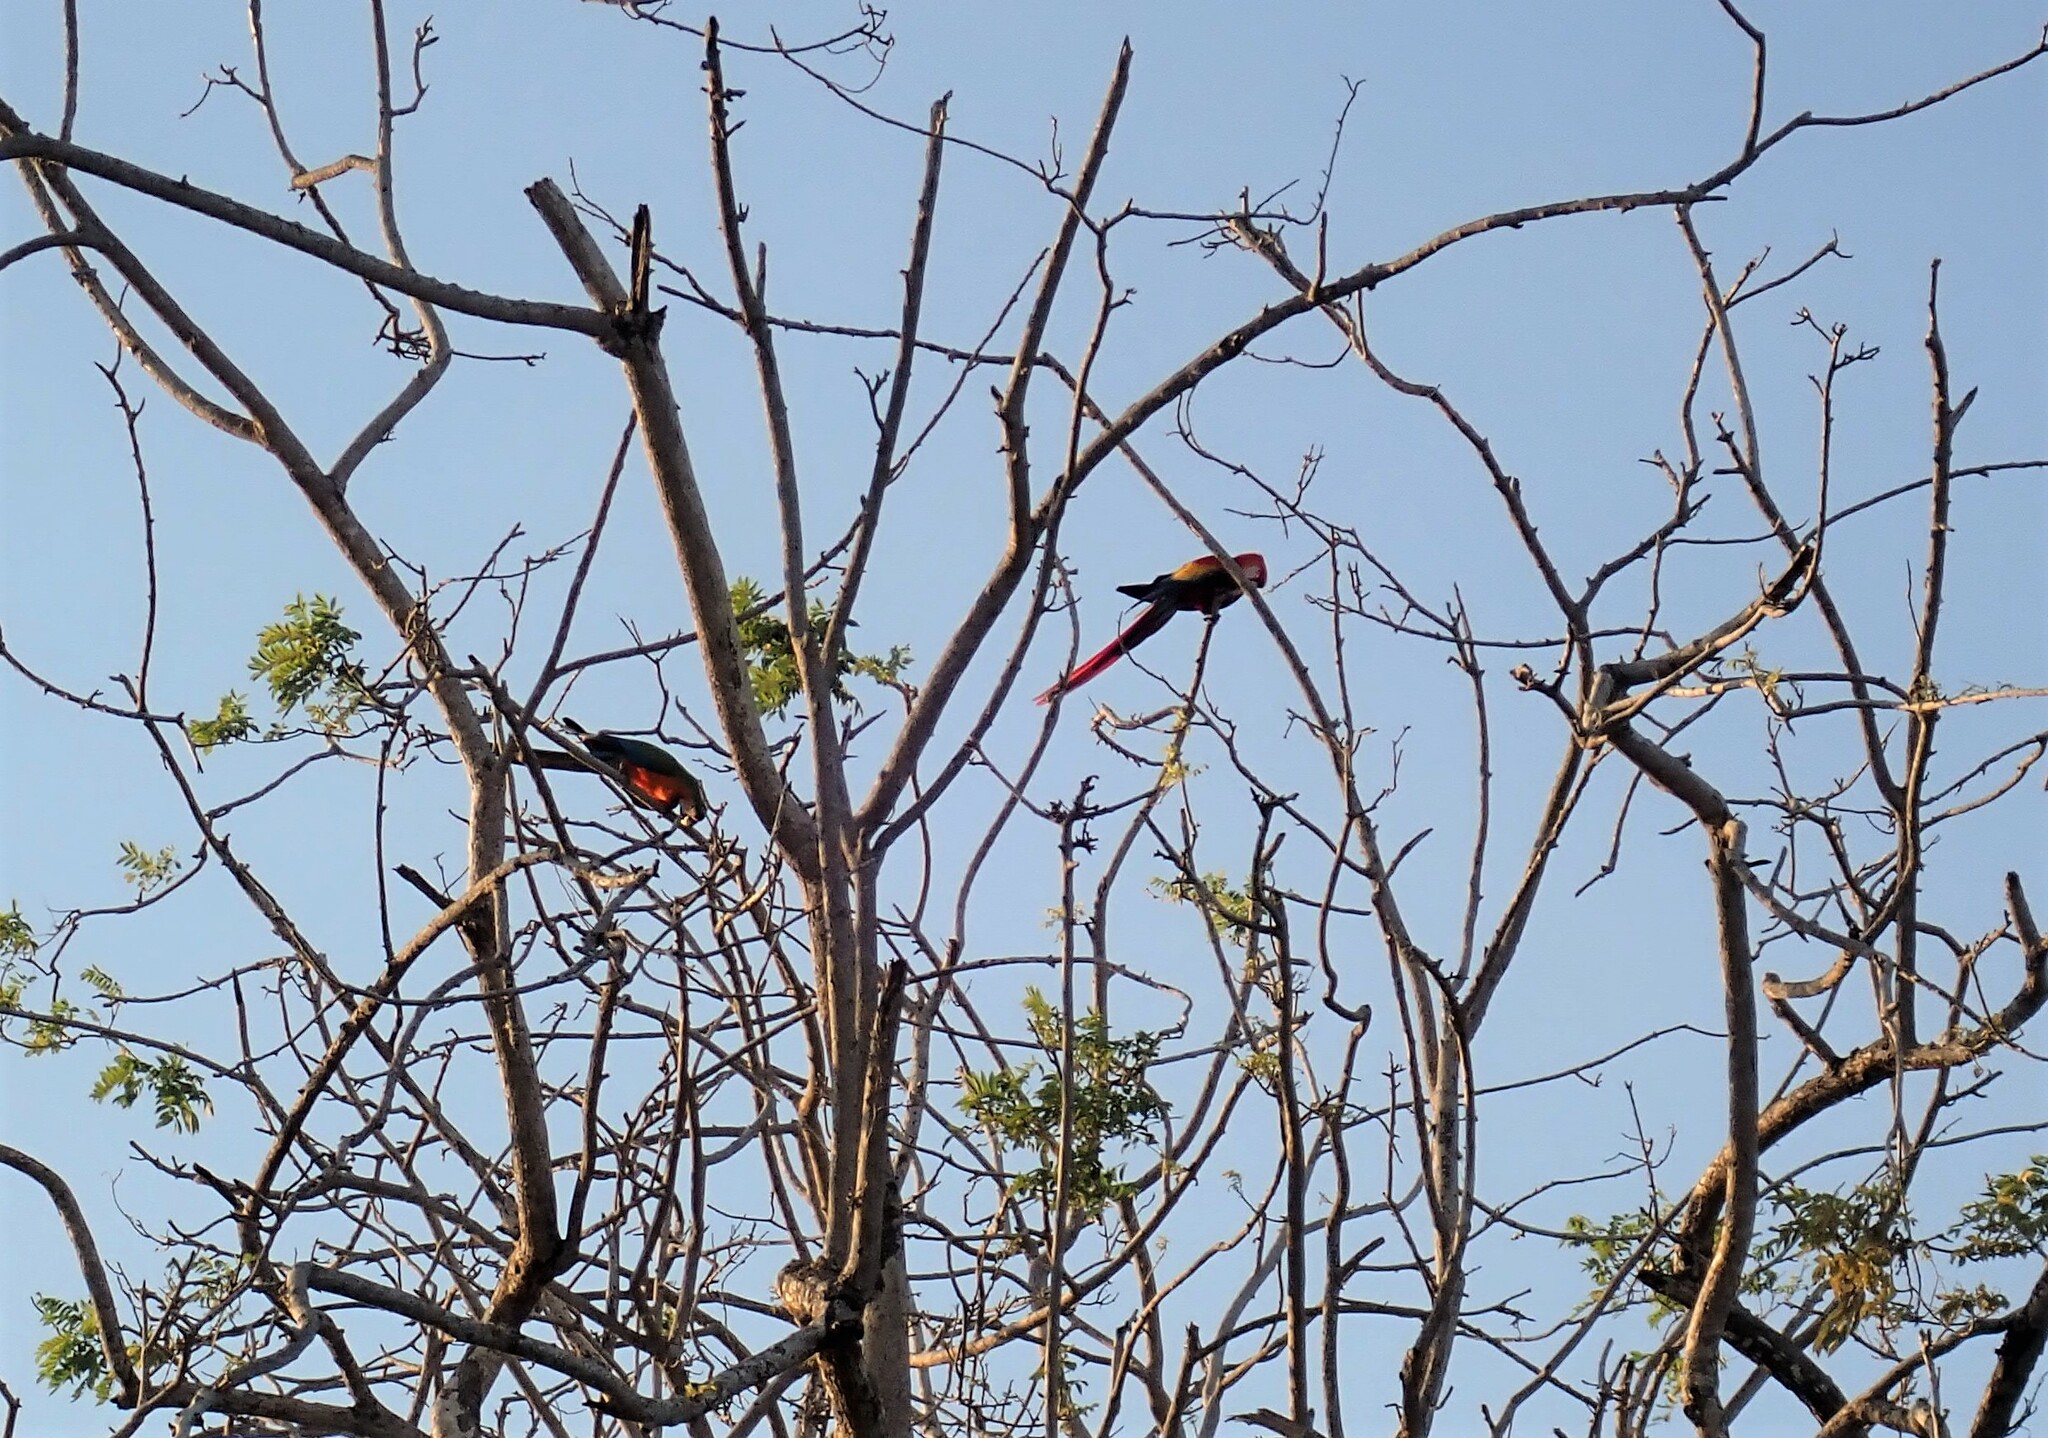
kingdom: Animalia
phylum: Chordata
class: Aves
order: Psittaciformes
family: Psittacidae
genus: Ara
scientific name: Ara macao
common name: Scarlet macaw
